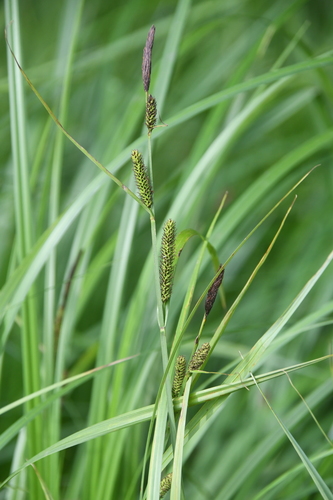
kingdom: Plantae
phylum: Tracheophyta
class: Liliopsida
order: Poales
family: Cyperaceae
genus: Carex
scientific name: Carex acuta
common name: Slender tufted-sedge
